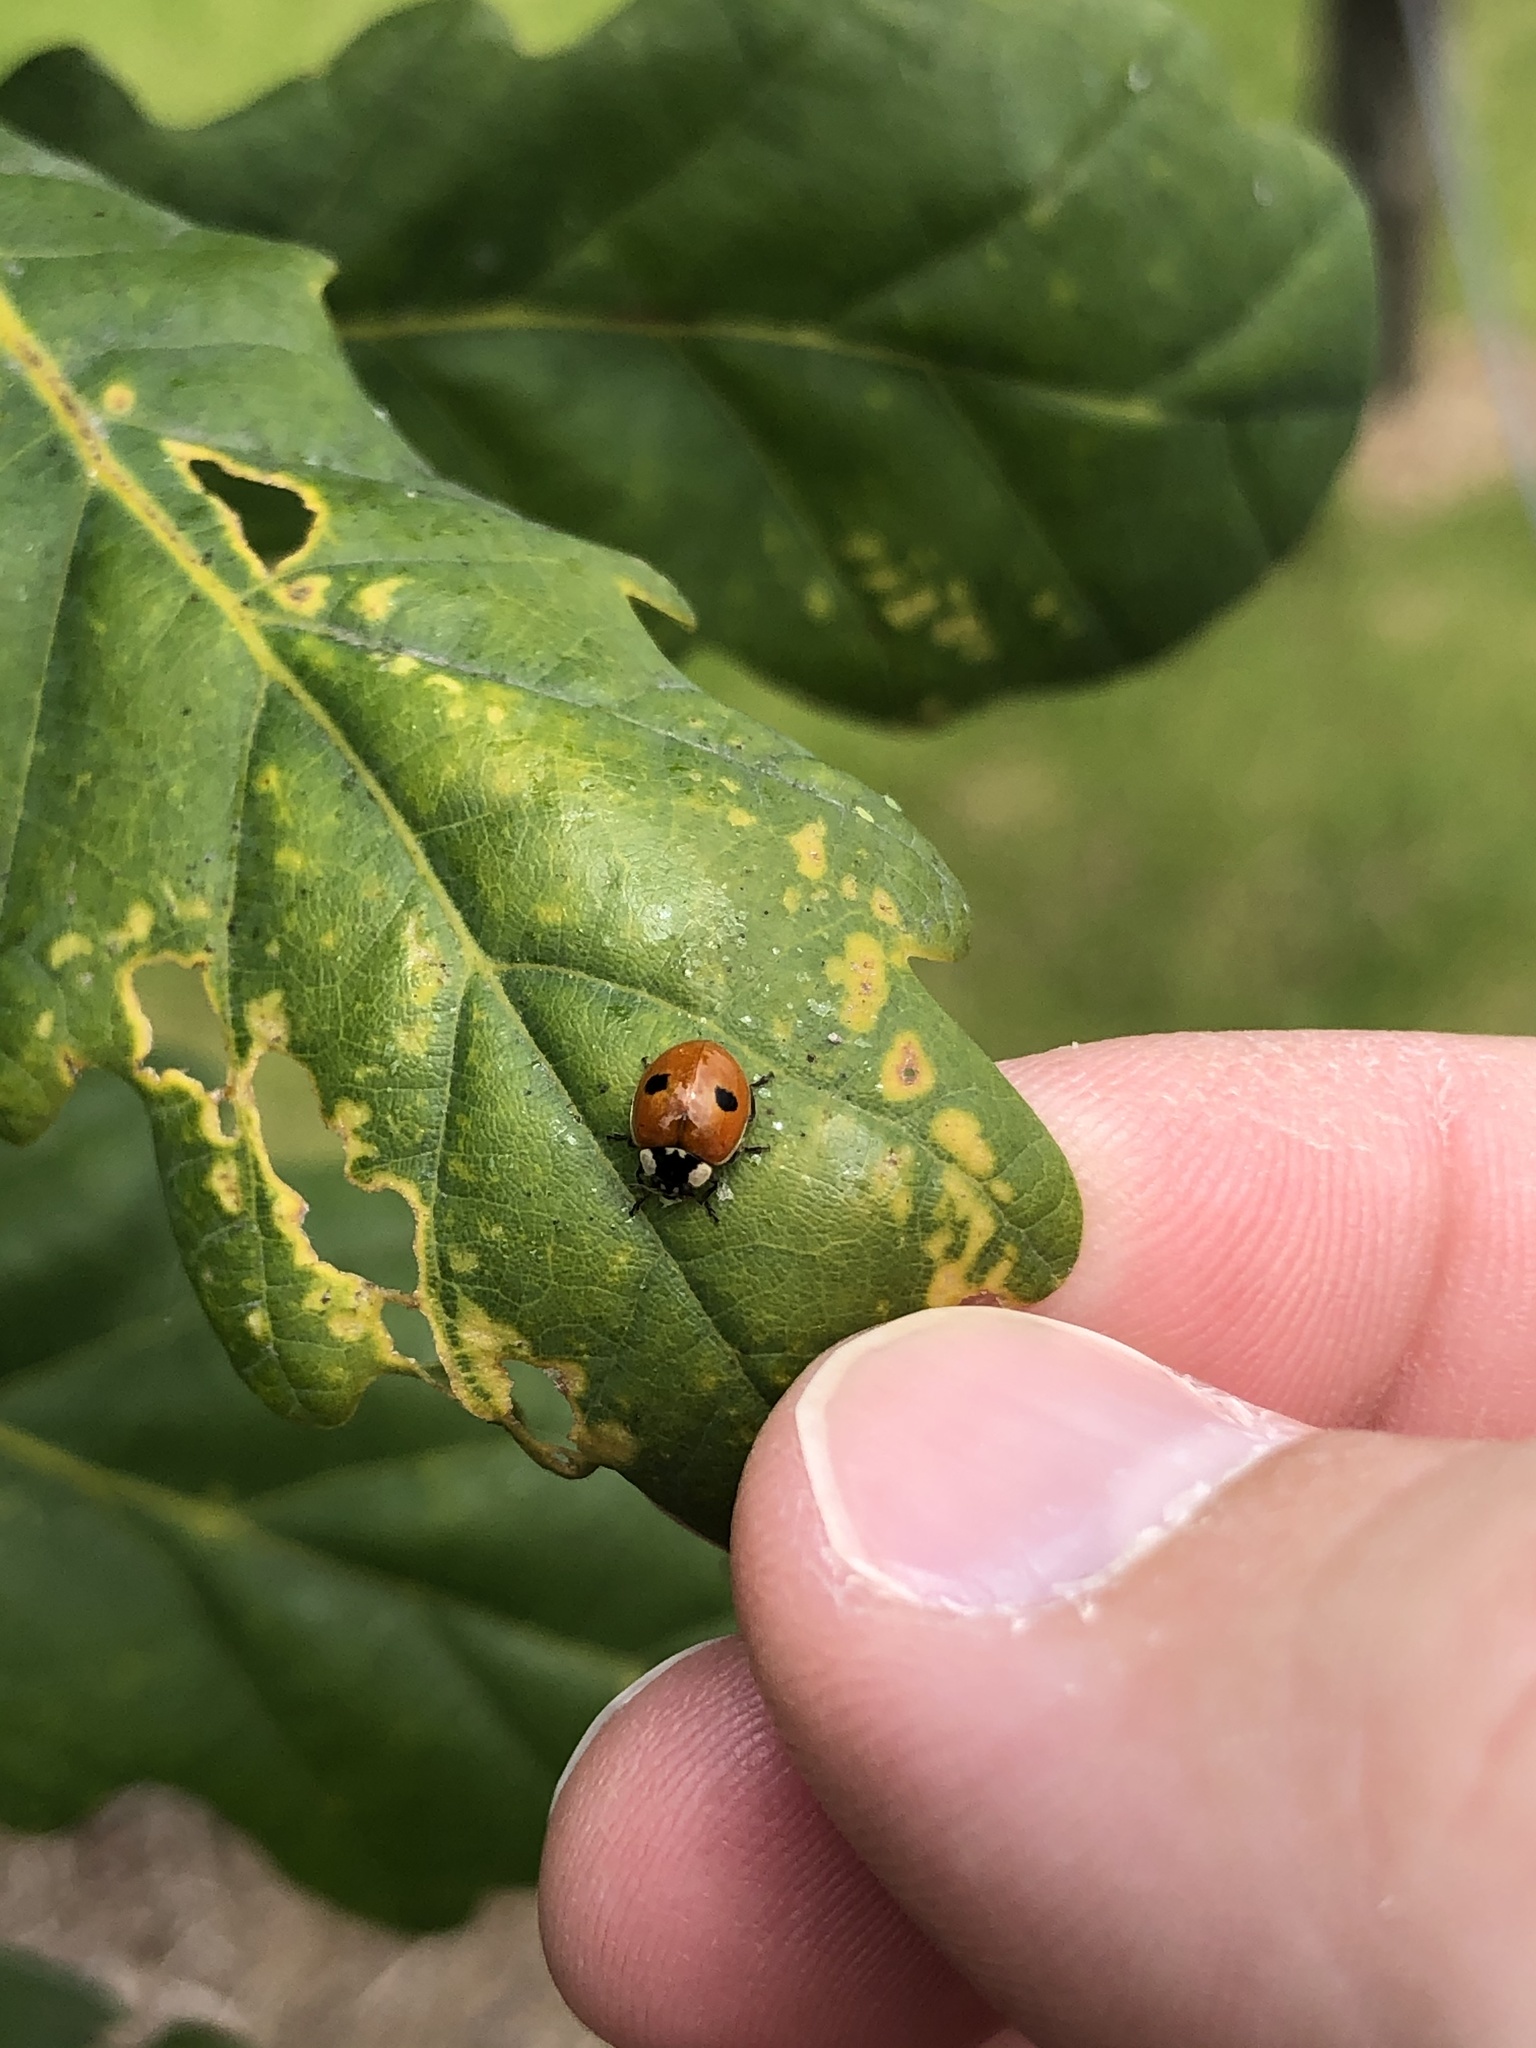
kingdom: Animalia
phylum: Arthropoda
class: Insecta
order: Coleoptera
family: Coccinellidae
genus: Adalia
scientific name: Adalia bipunctata
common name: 2-spot ladybird
